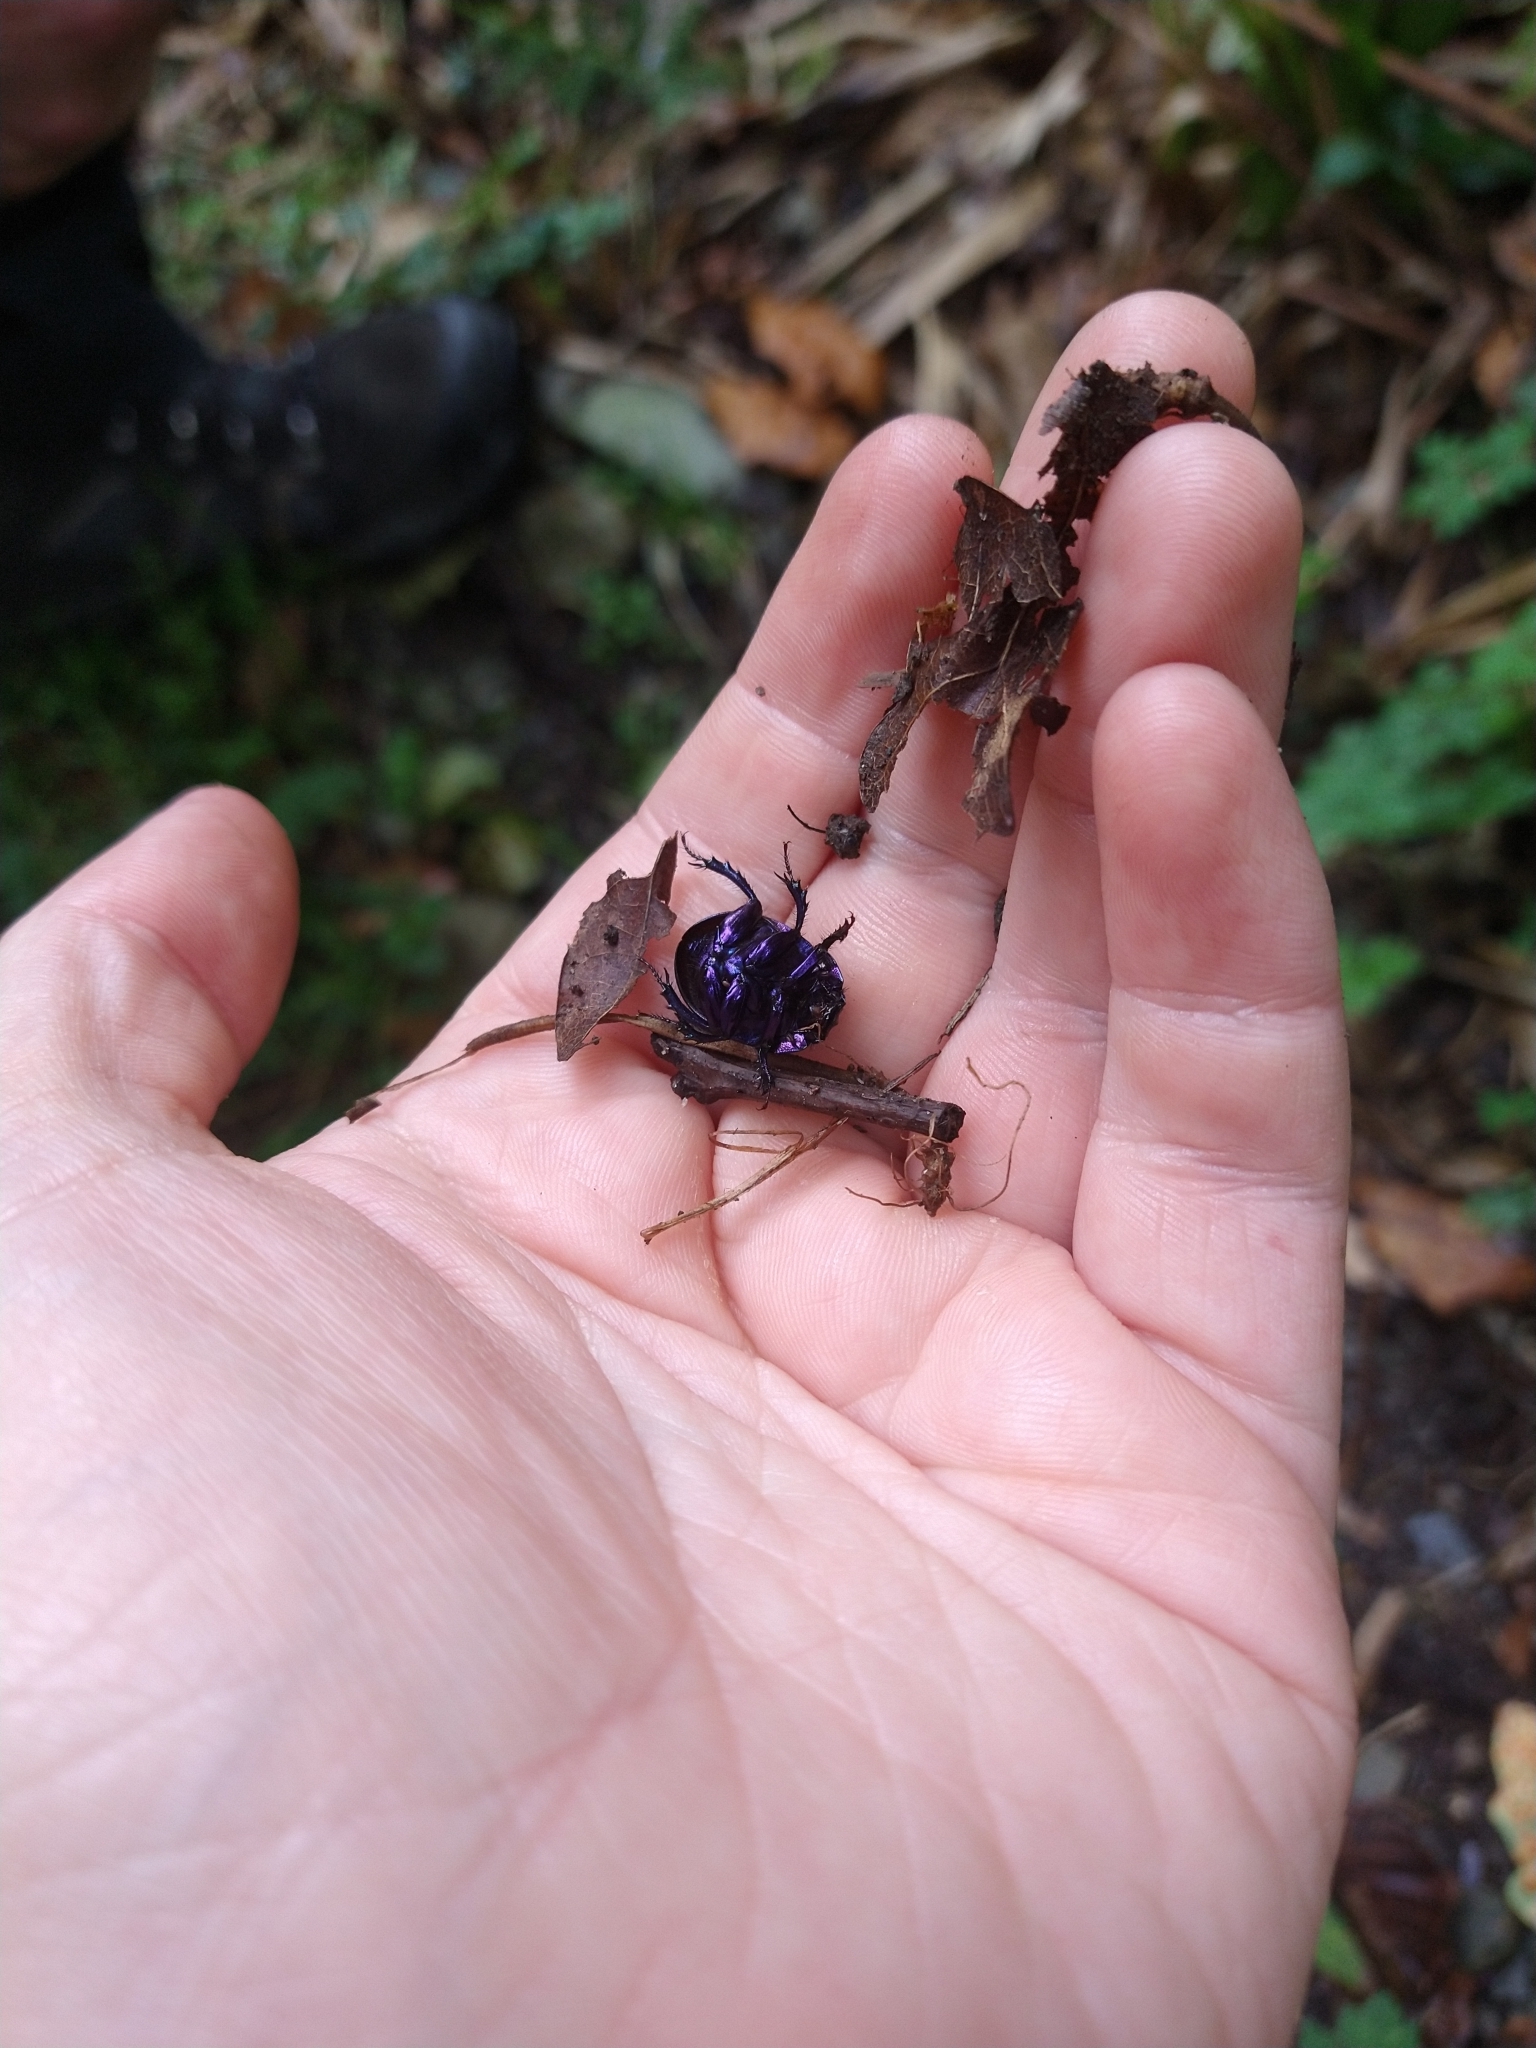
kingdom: Animalia
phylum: Arthropoda
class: Insecta
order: Coleoptera
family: Geotrupidae
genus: Anoplotrupes
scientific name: Anoplotrupes stercorosus
